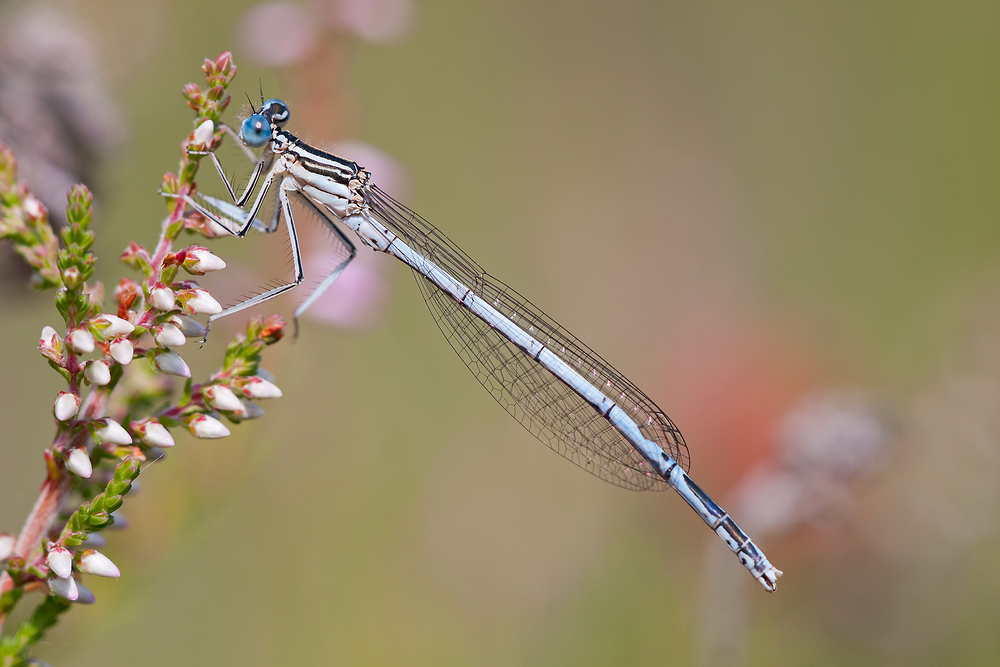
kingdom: Animalia
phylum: Arthropoda
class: Insecta
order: Odonata
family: Platycnemididae
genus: Platycnemis
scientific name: Platycnemis pennipes
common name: White-legged damselfly
